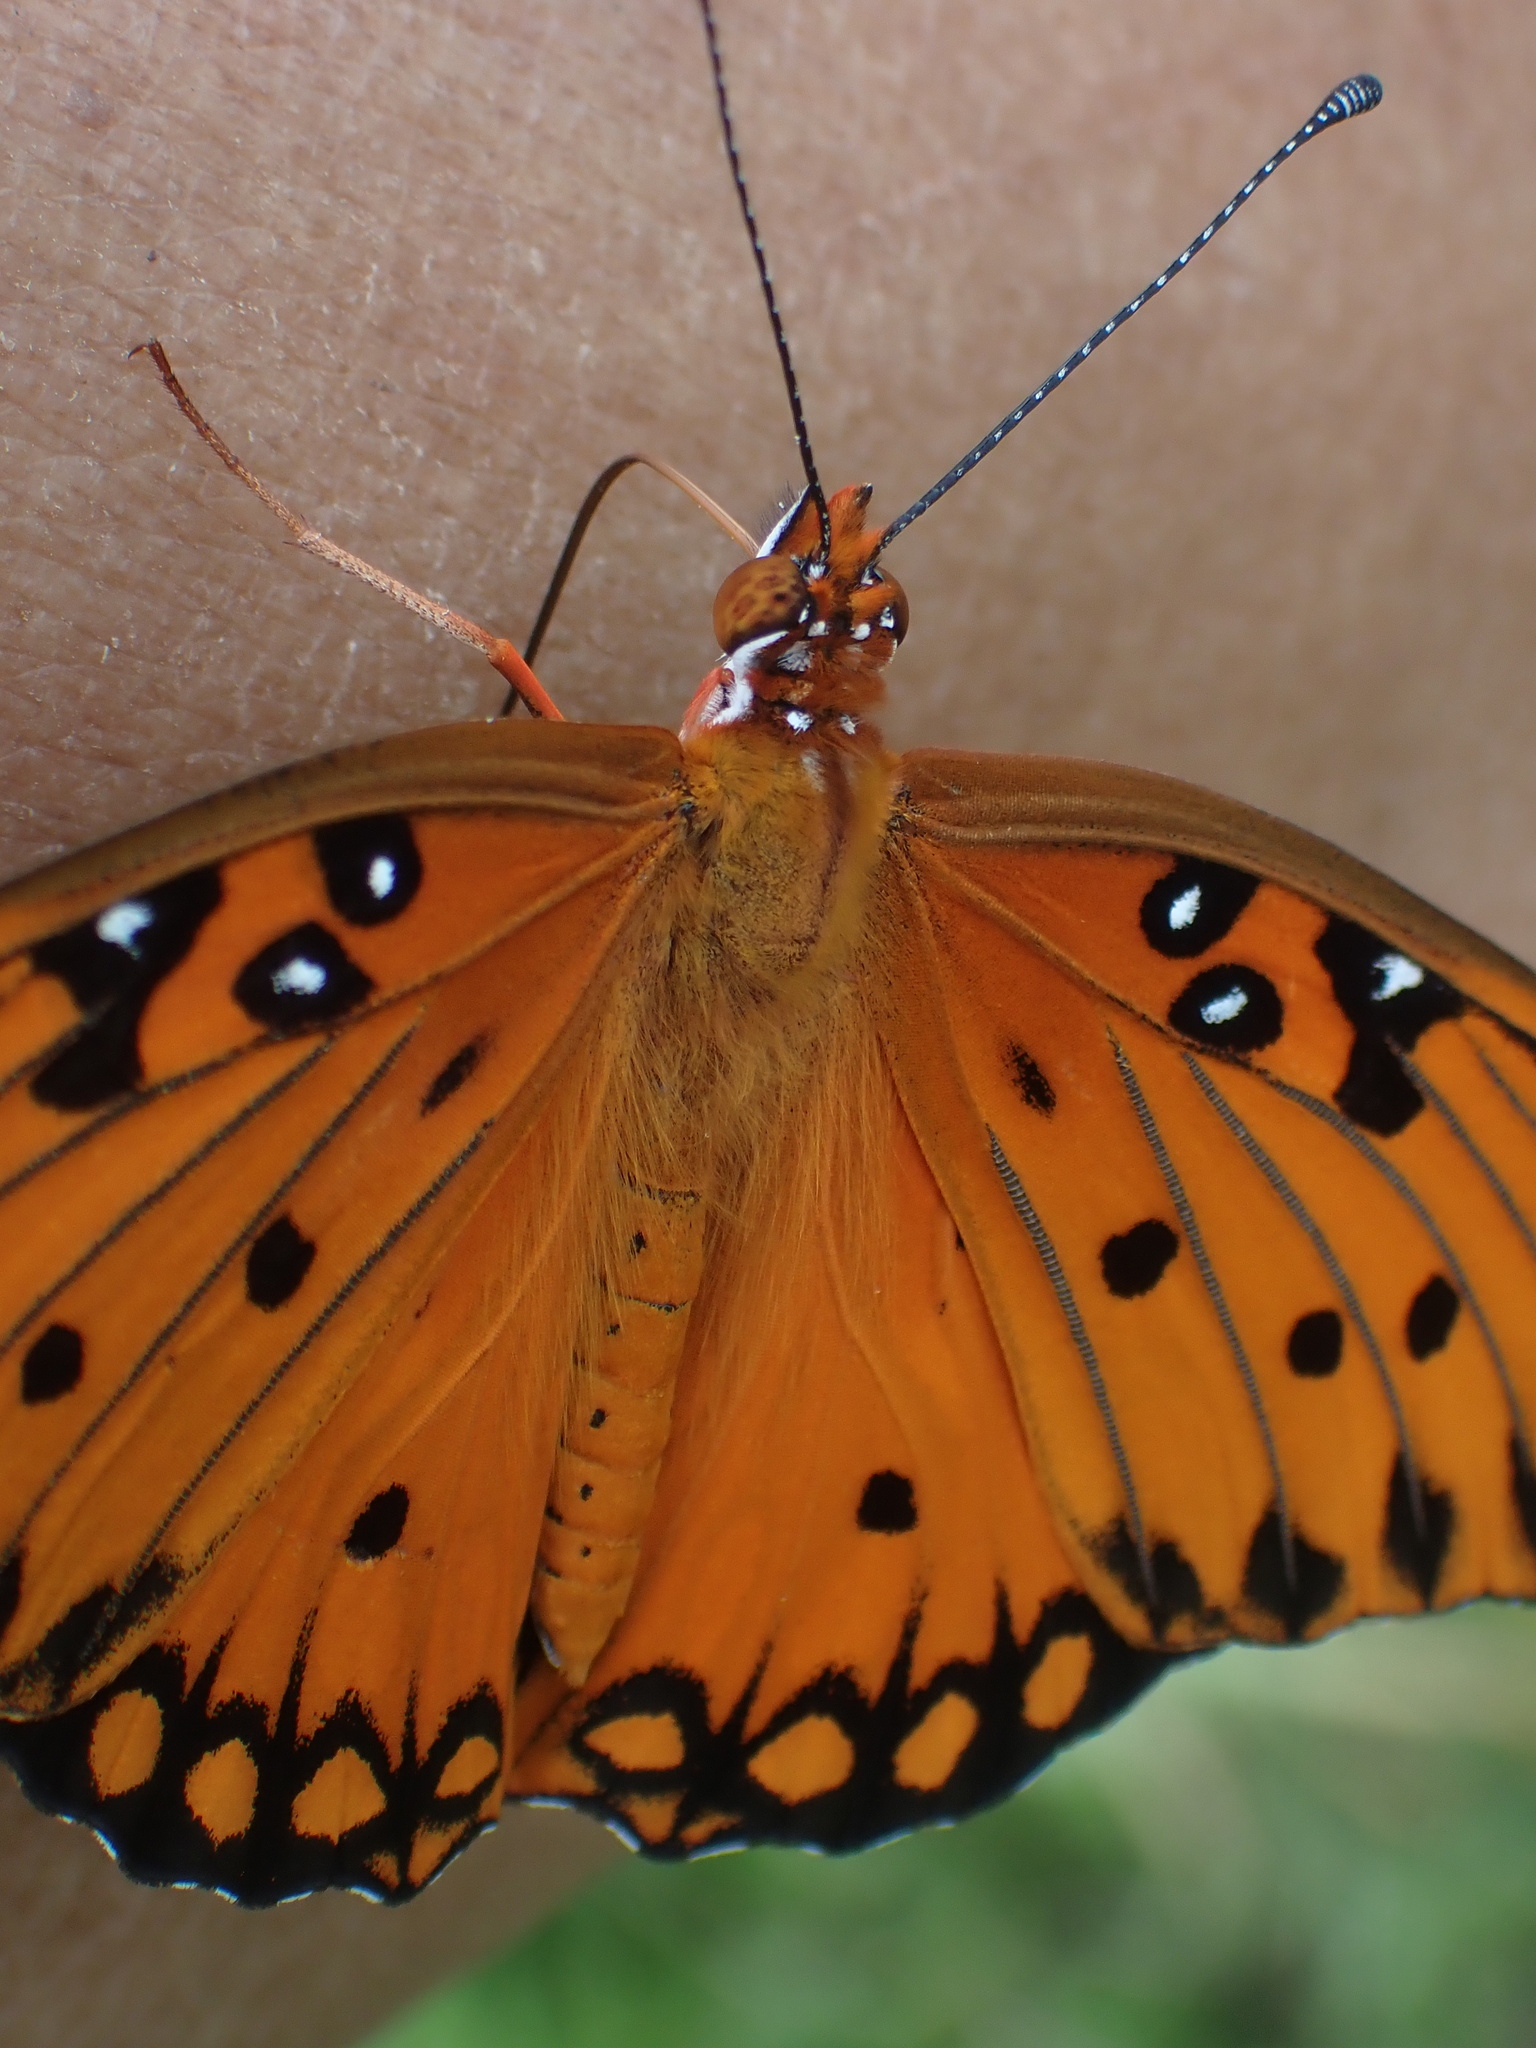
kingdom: Animalia
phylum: Arthropoda
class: Insecta
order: Lepidoptera
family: Nymphalidae
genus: Dione
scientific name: Dione vanillae
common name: Gulf fritillary
